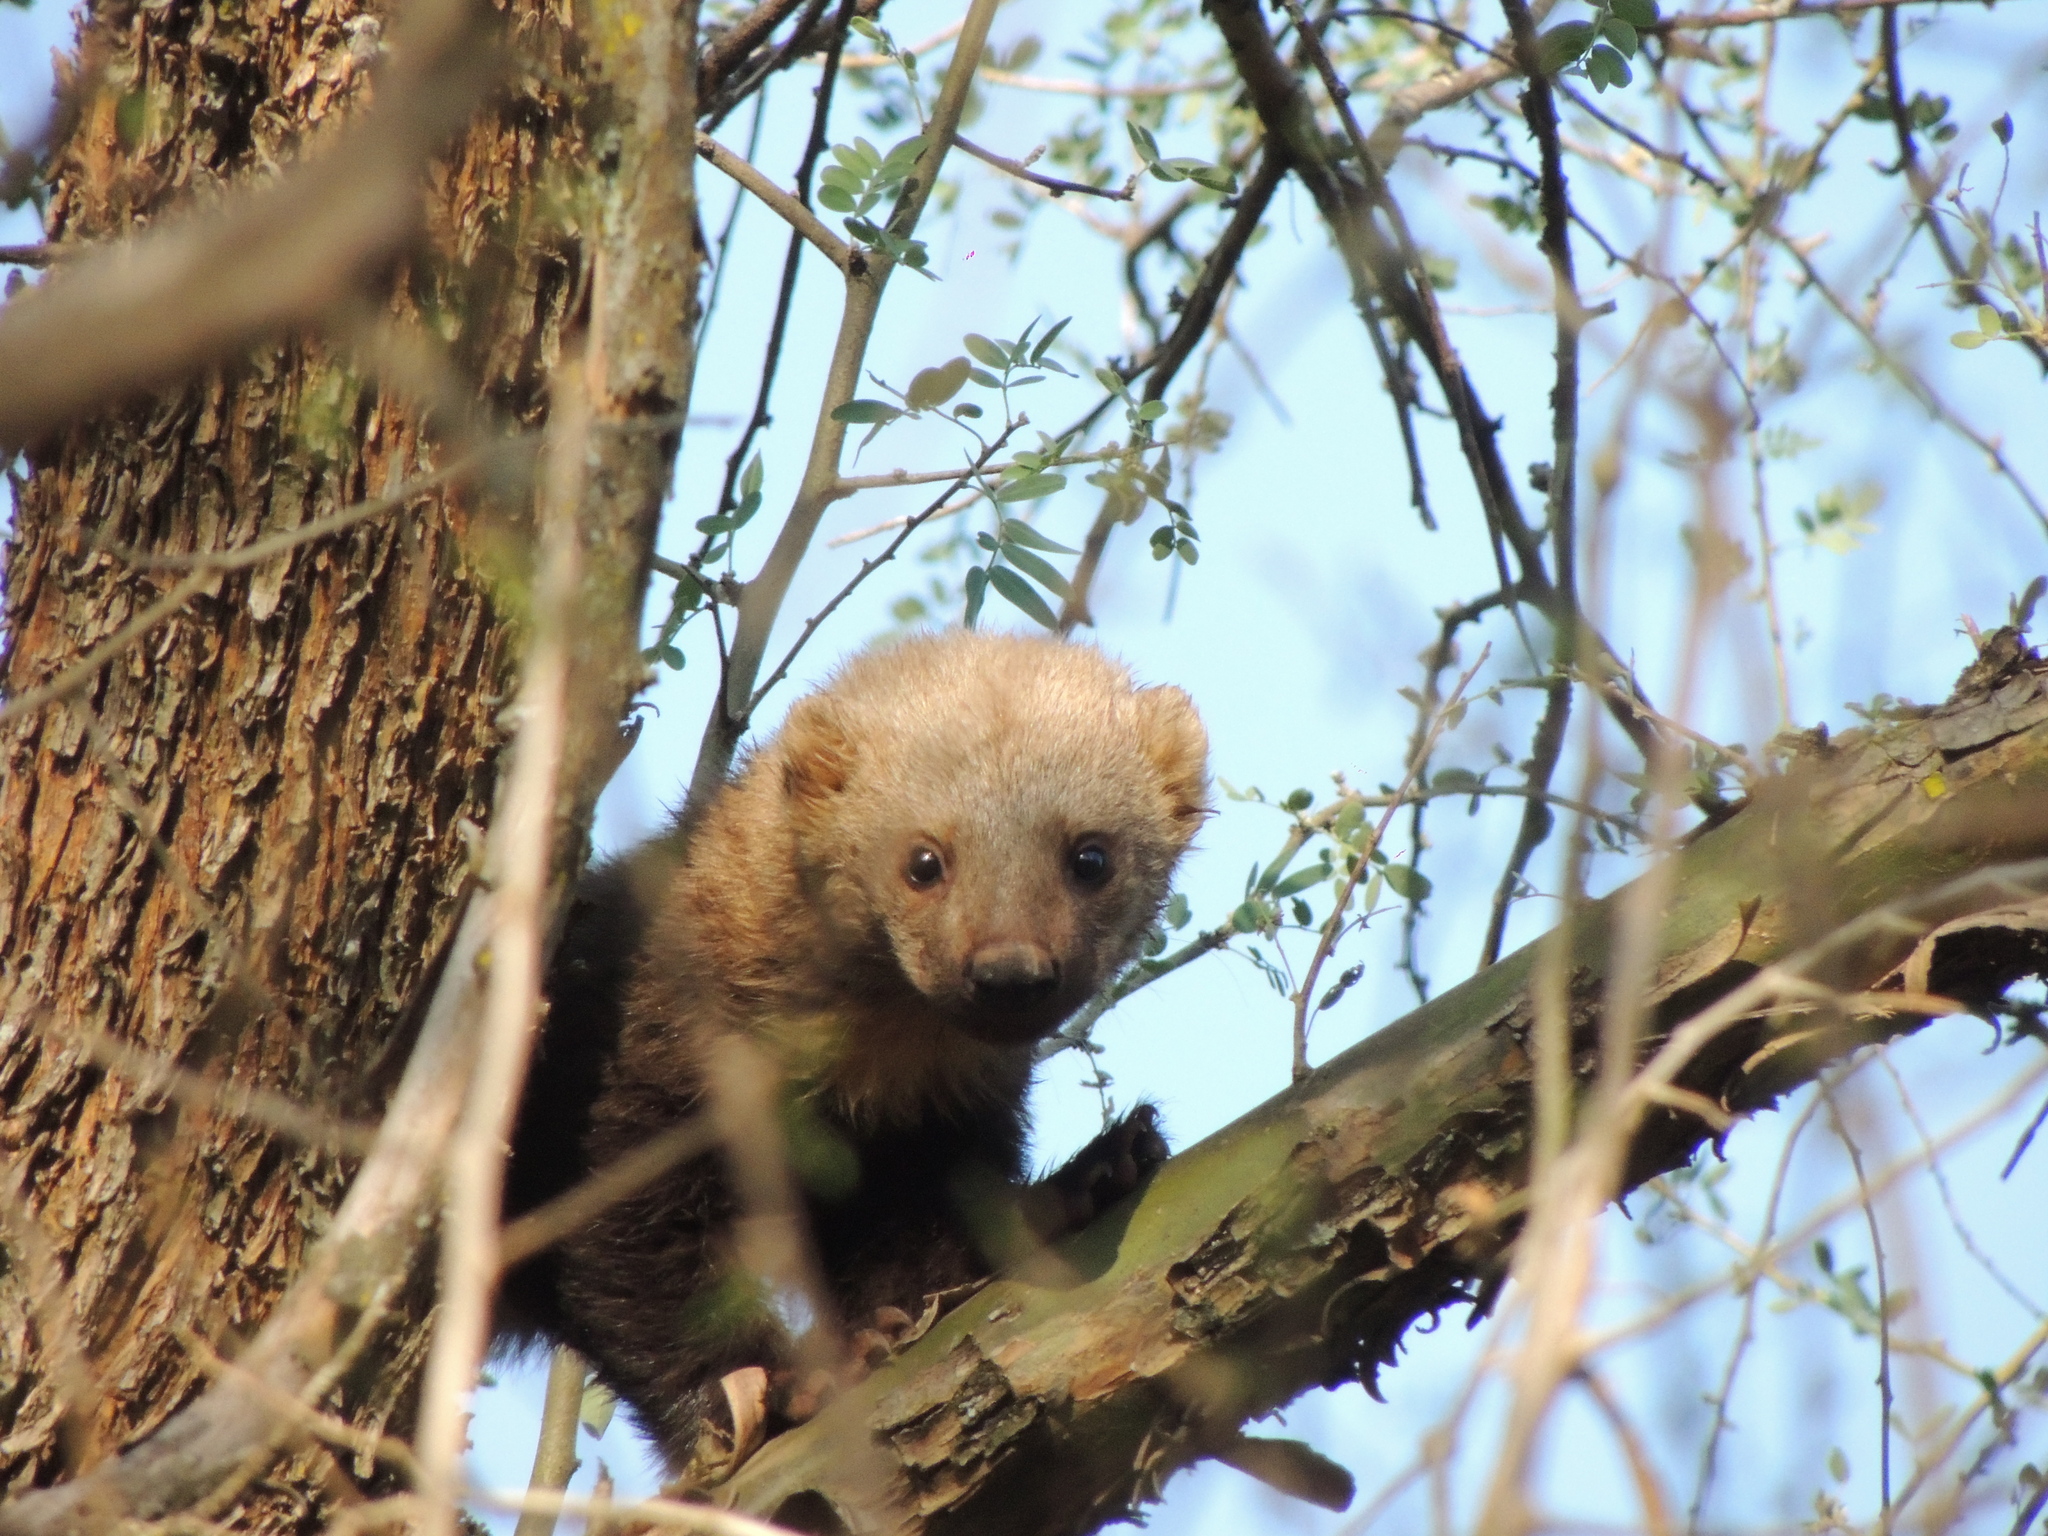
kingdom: Animalia
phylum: Chordata
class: Mammalia
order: Carnivora
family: Mustelidae
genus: Eira
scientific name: Eira barbara
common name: Tayra
